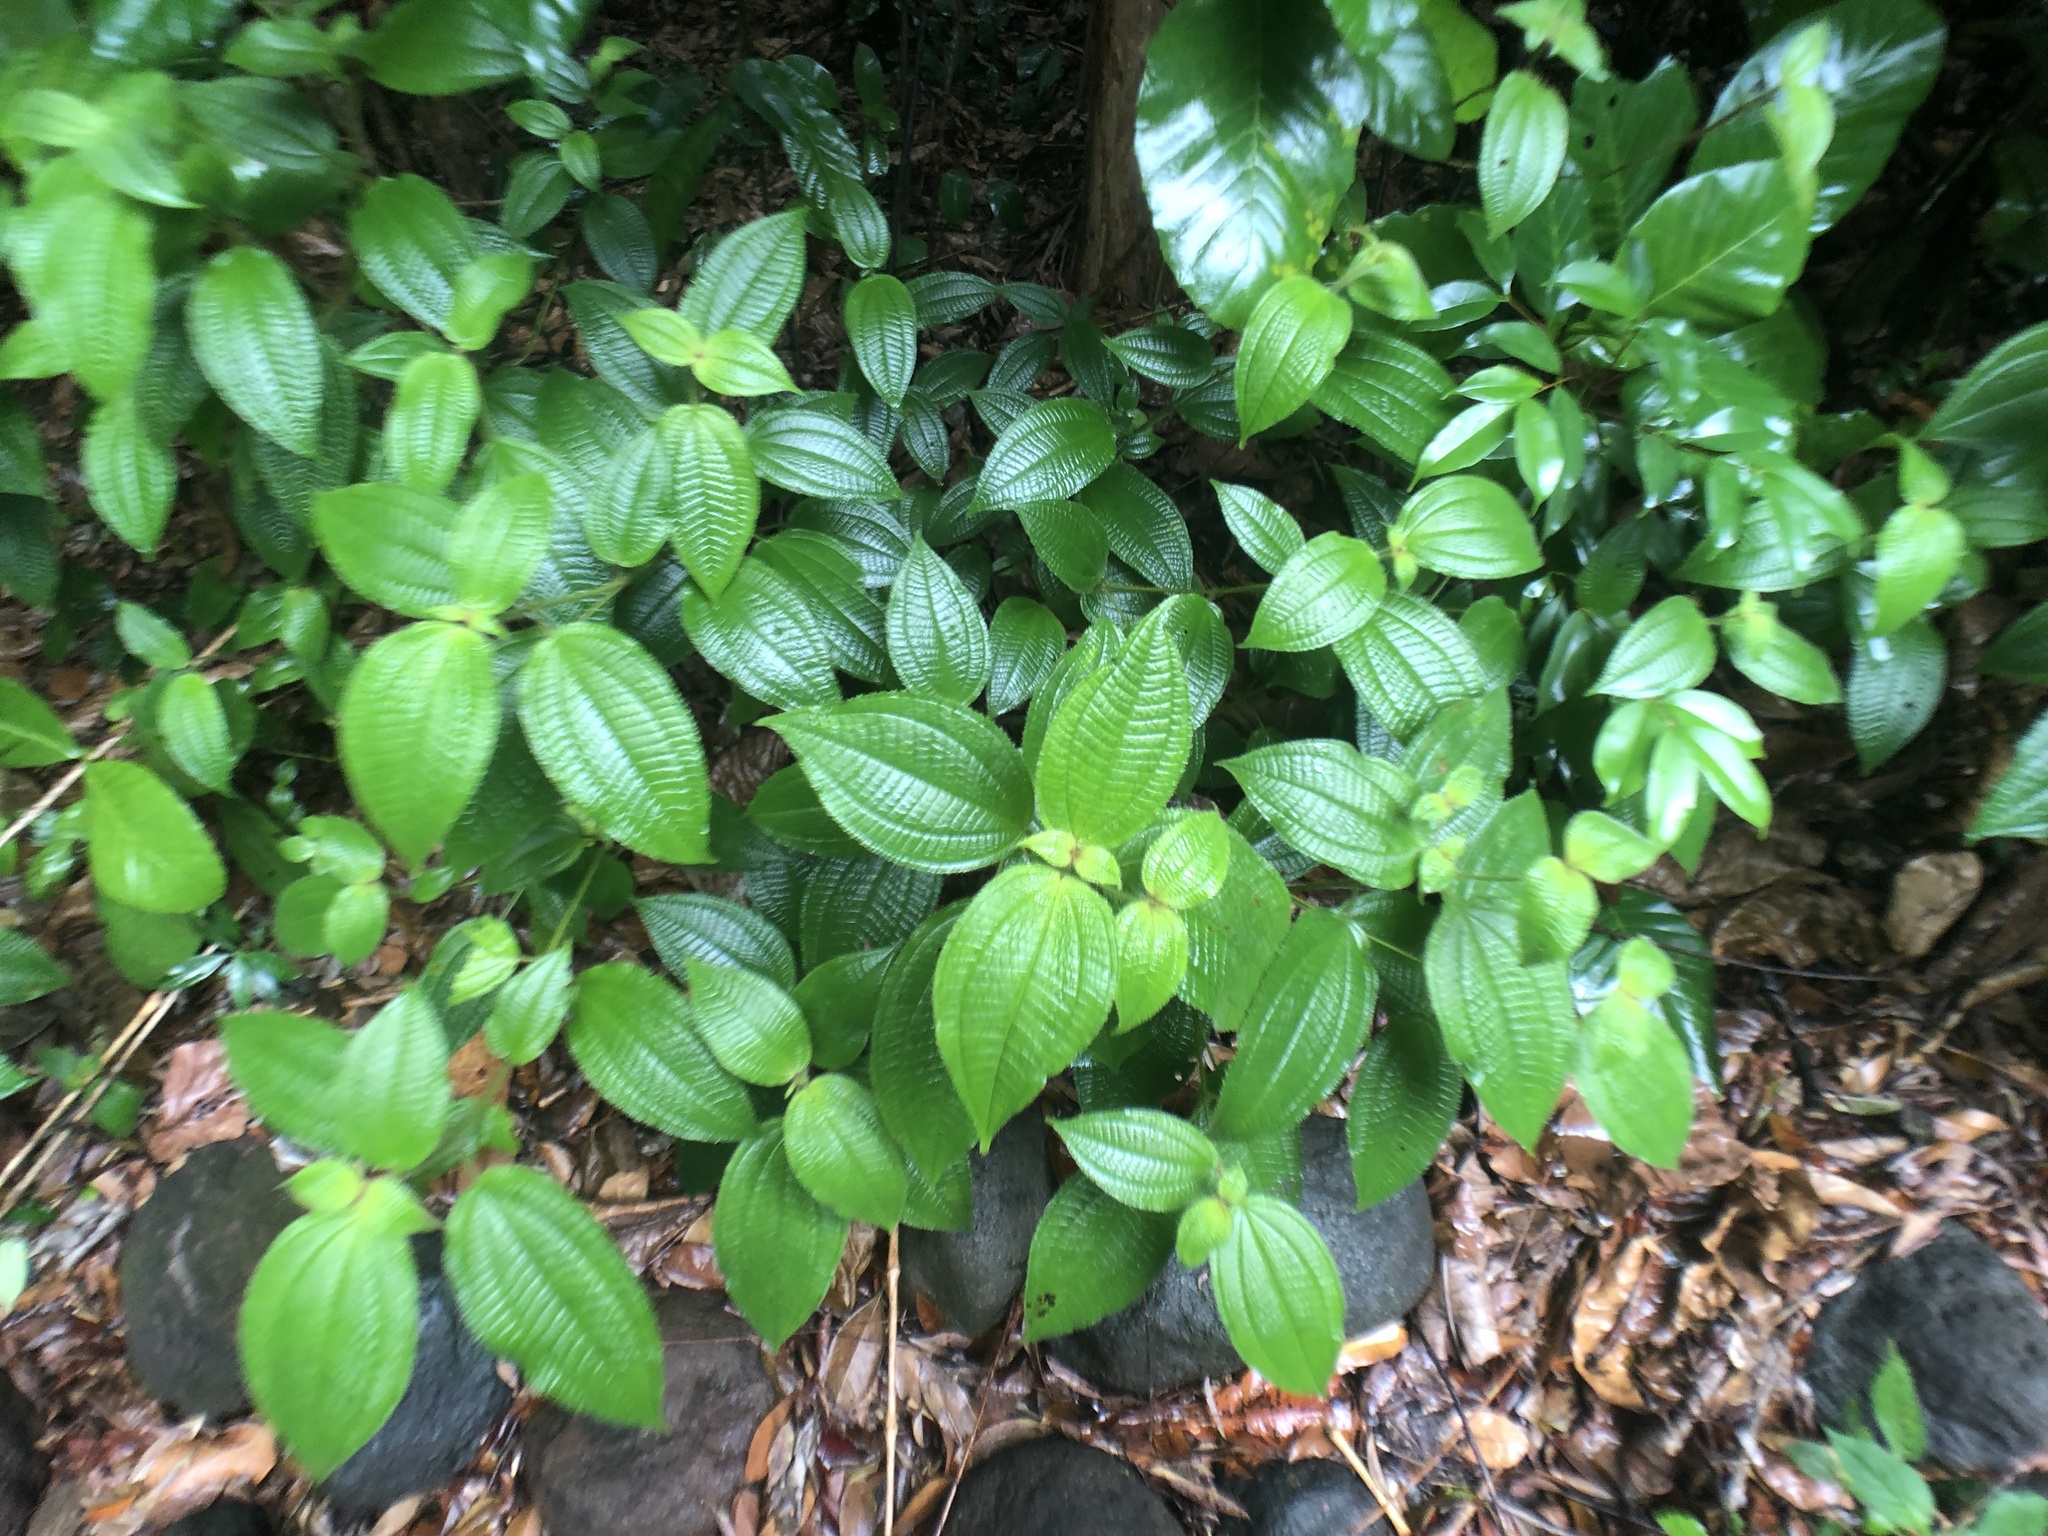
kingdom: Plantae
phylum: Tracheophyta
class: Magnoliopsida
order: Myrtales
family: Melastomataceae
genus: Miconia
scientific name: Miconia crenata
